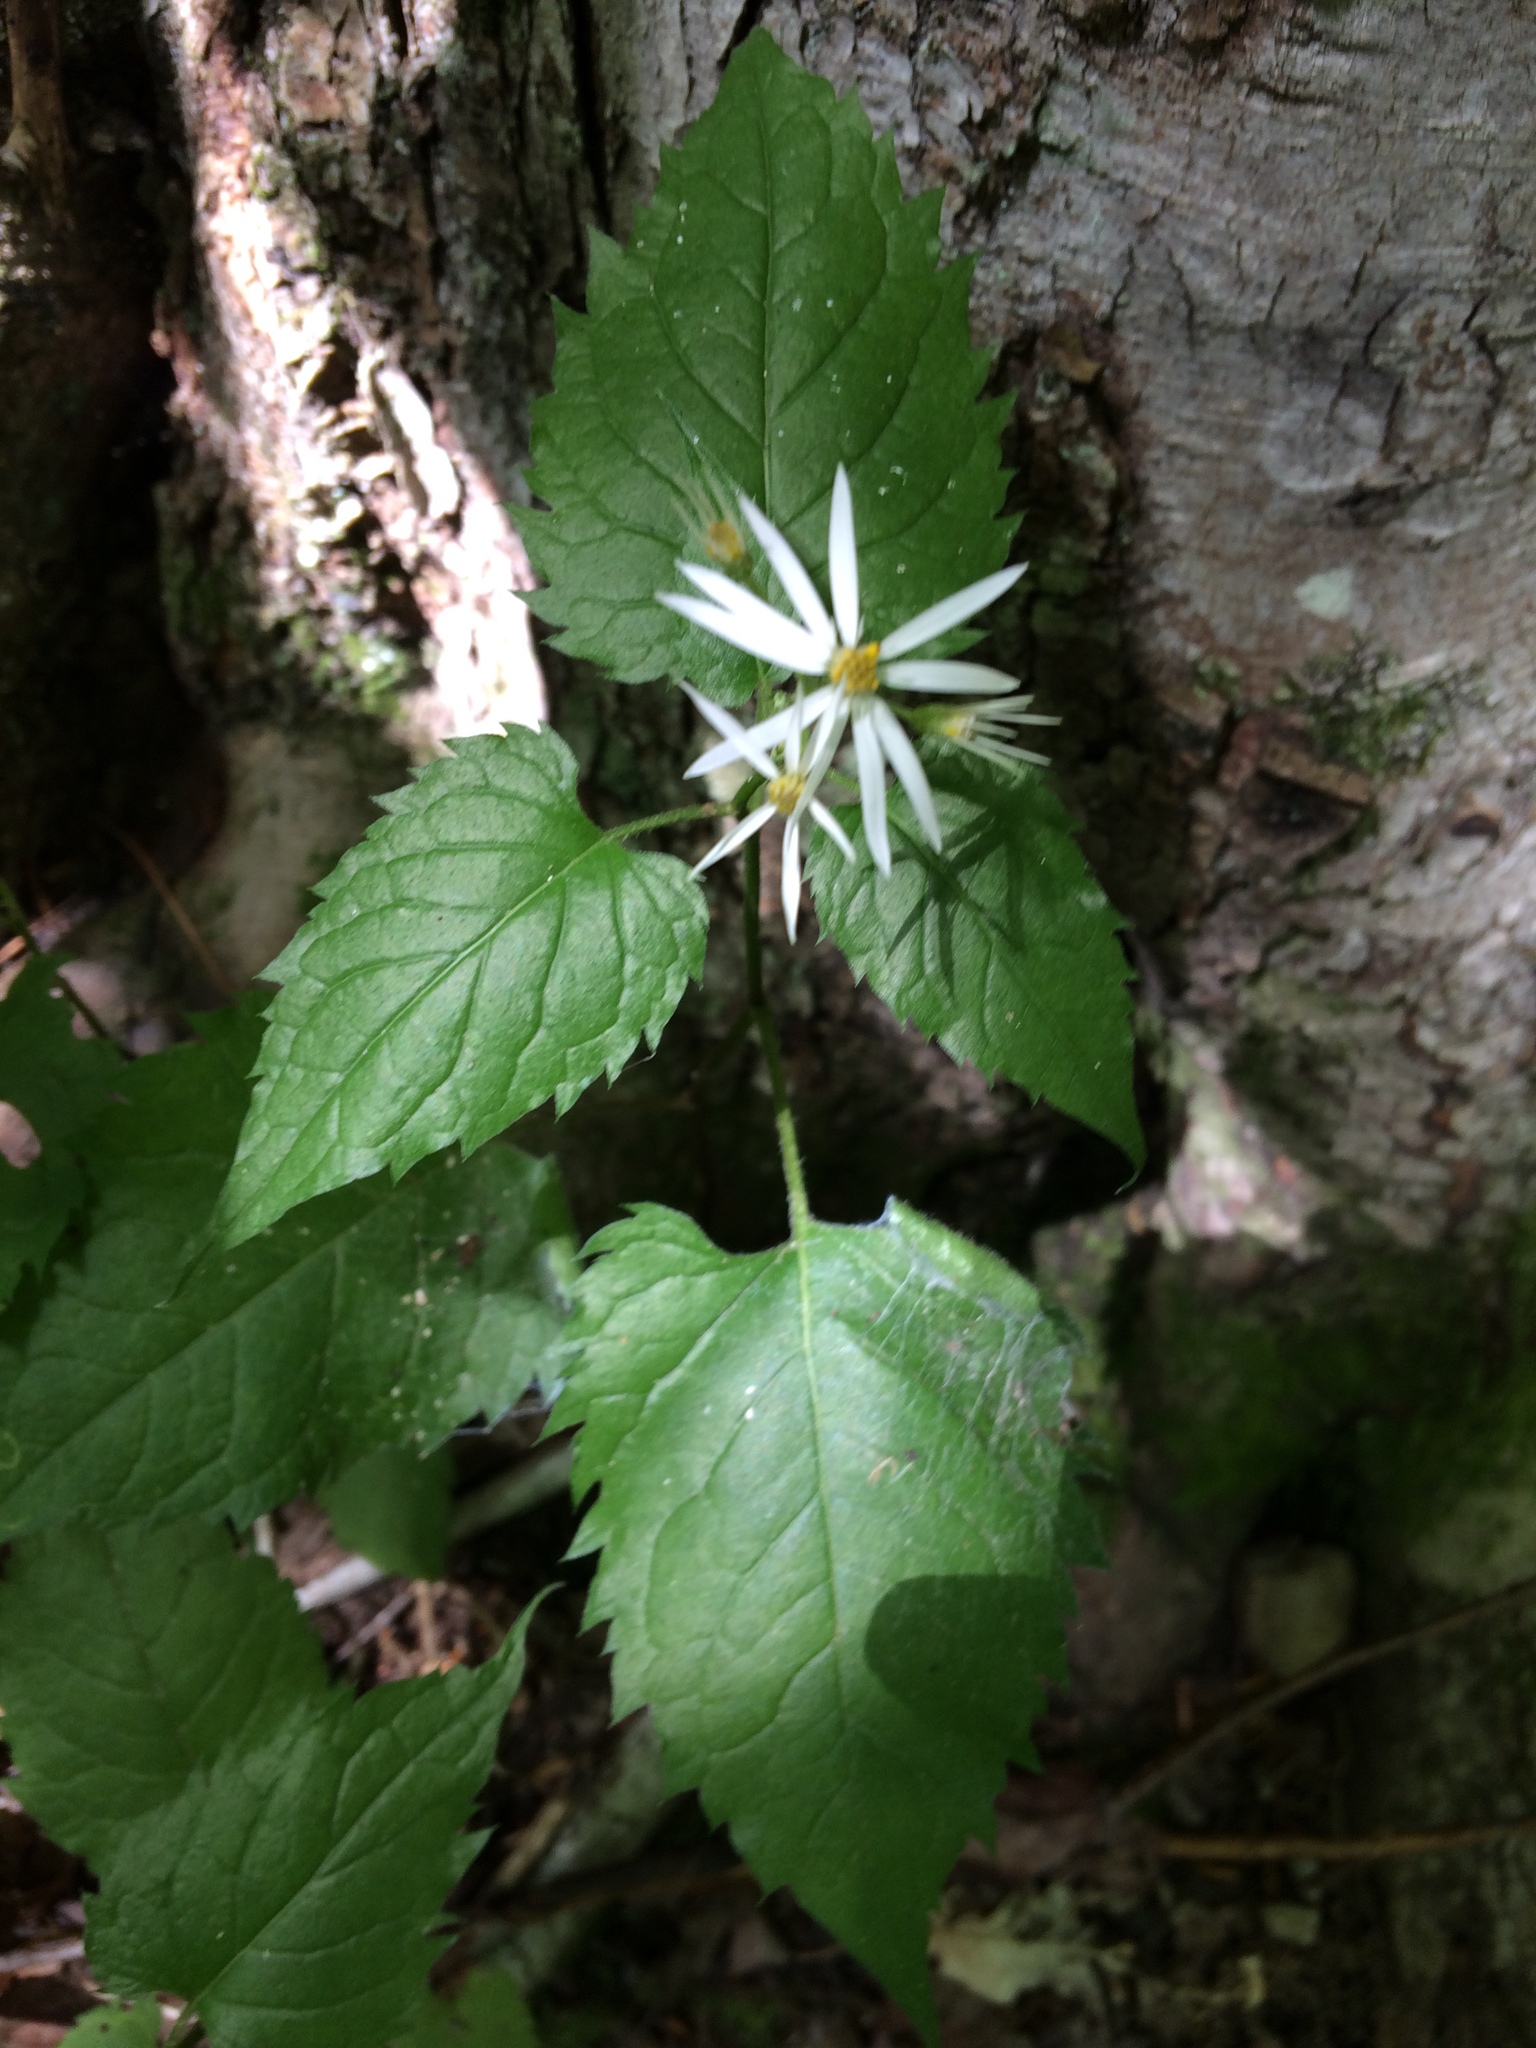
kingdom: Plantae
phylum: Tracheophyta
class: Magnoliopsida
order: Asterales
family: Asteraceae
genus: Eurybia
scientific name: Eurybia divaricata
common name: White wood aster
